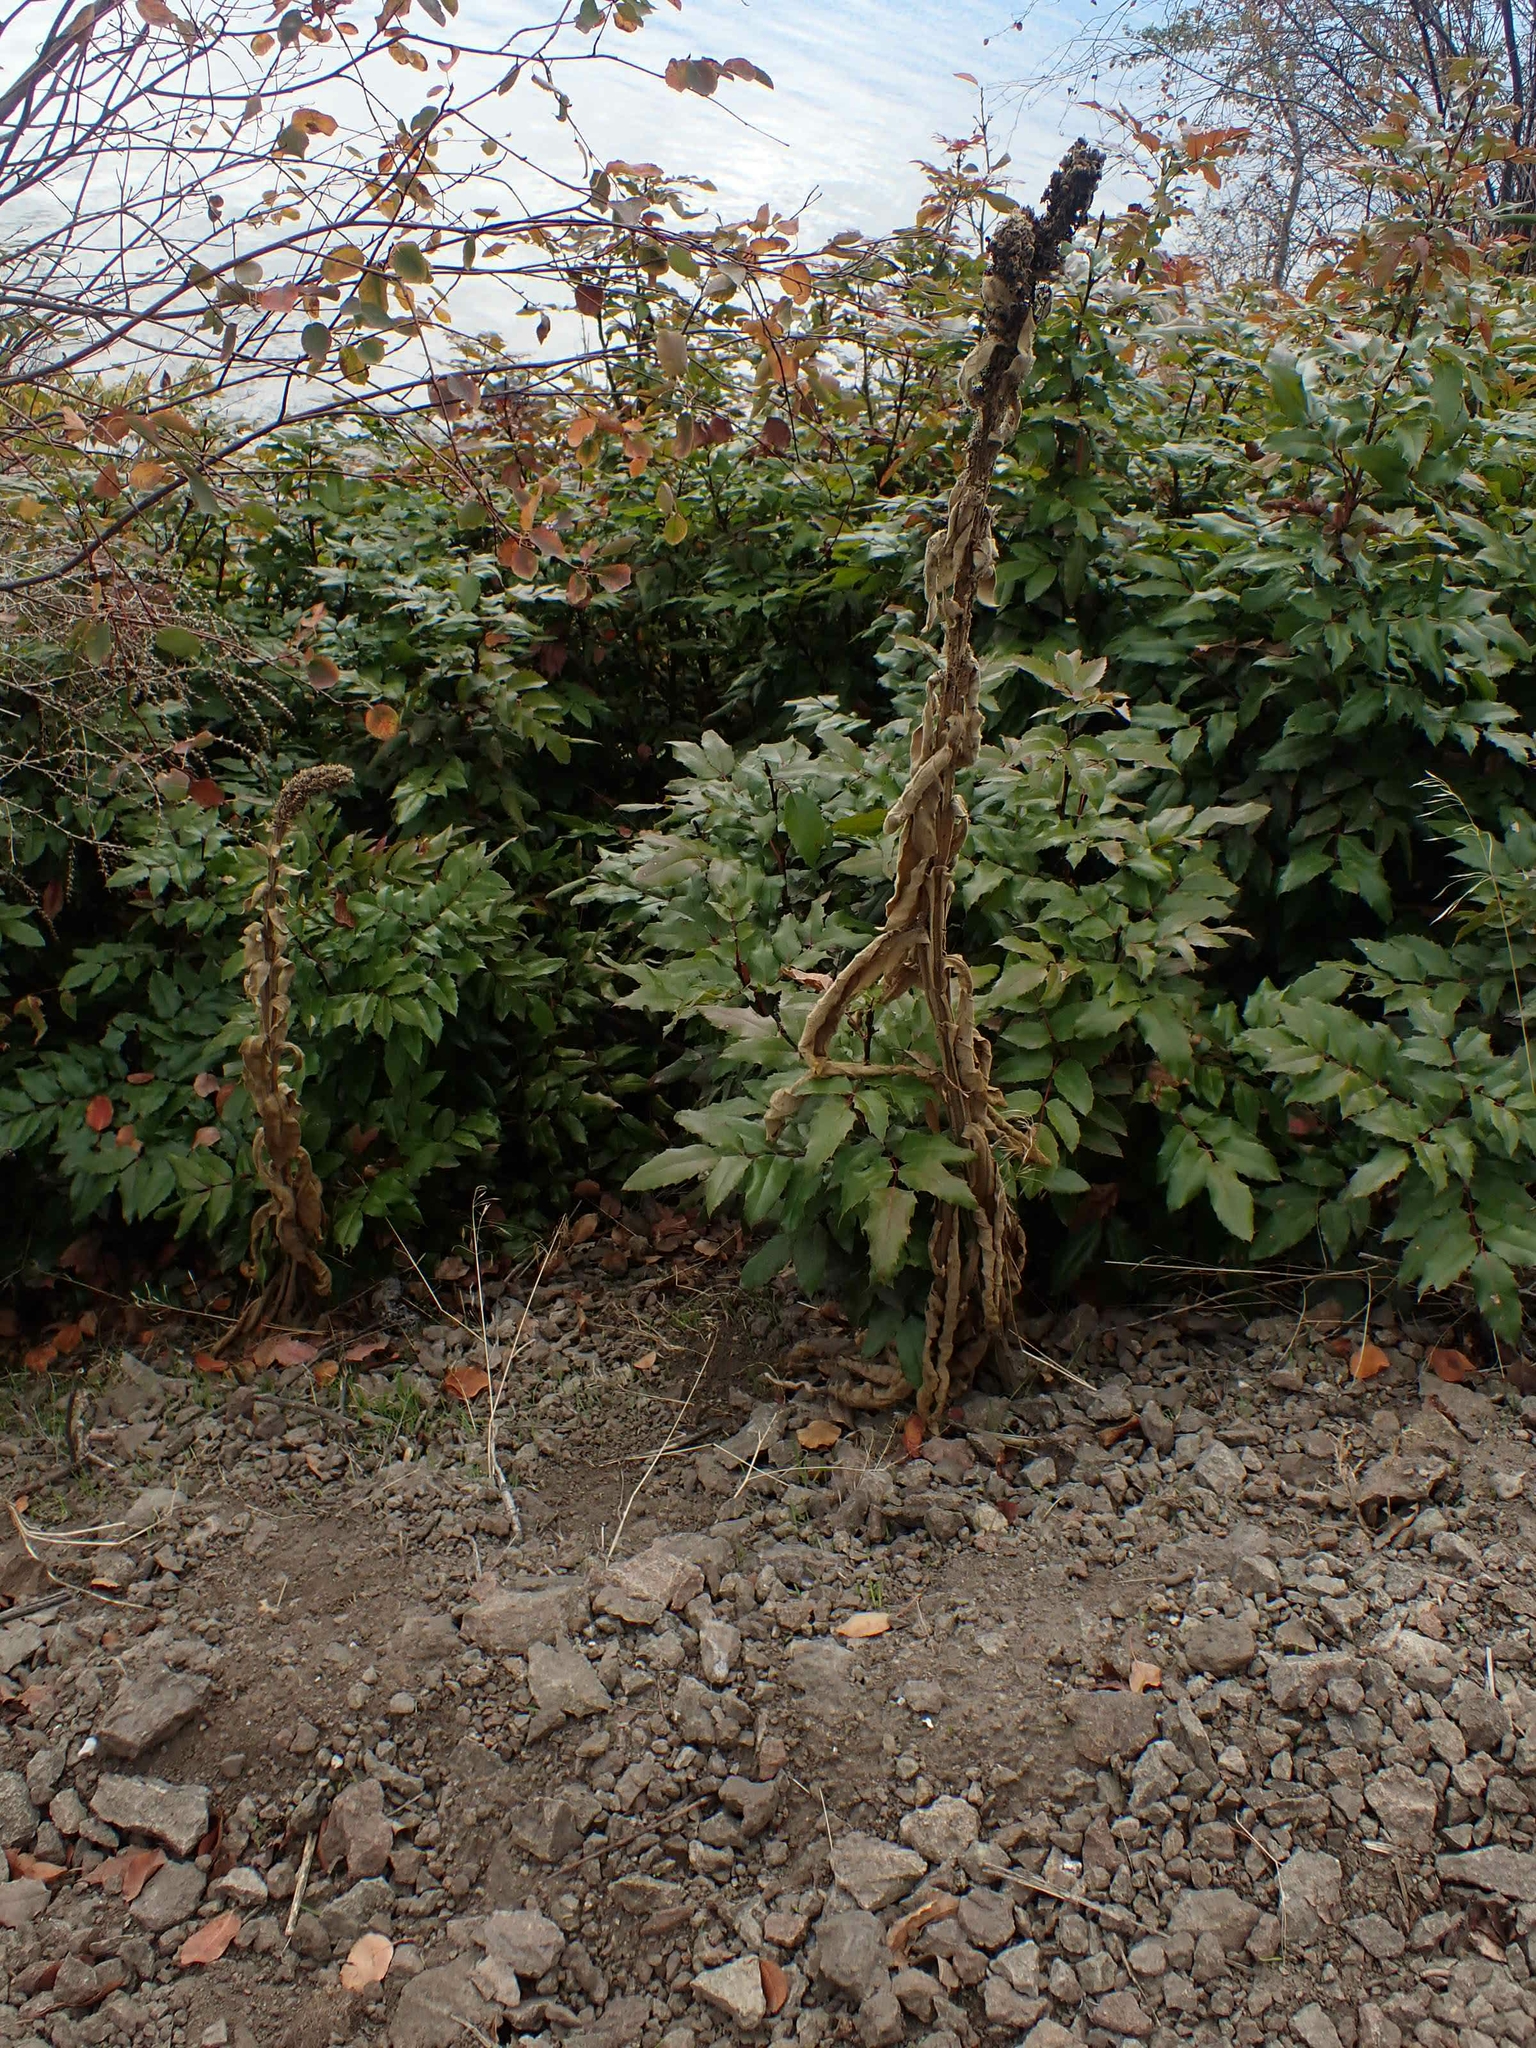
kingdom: Plantae
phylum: Tracheophyta
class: Magnoliopsida
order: Lamiales
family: Scrophulariaceae
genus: Verbascum
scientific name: Verbascum thapsus
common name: Common mullein
